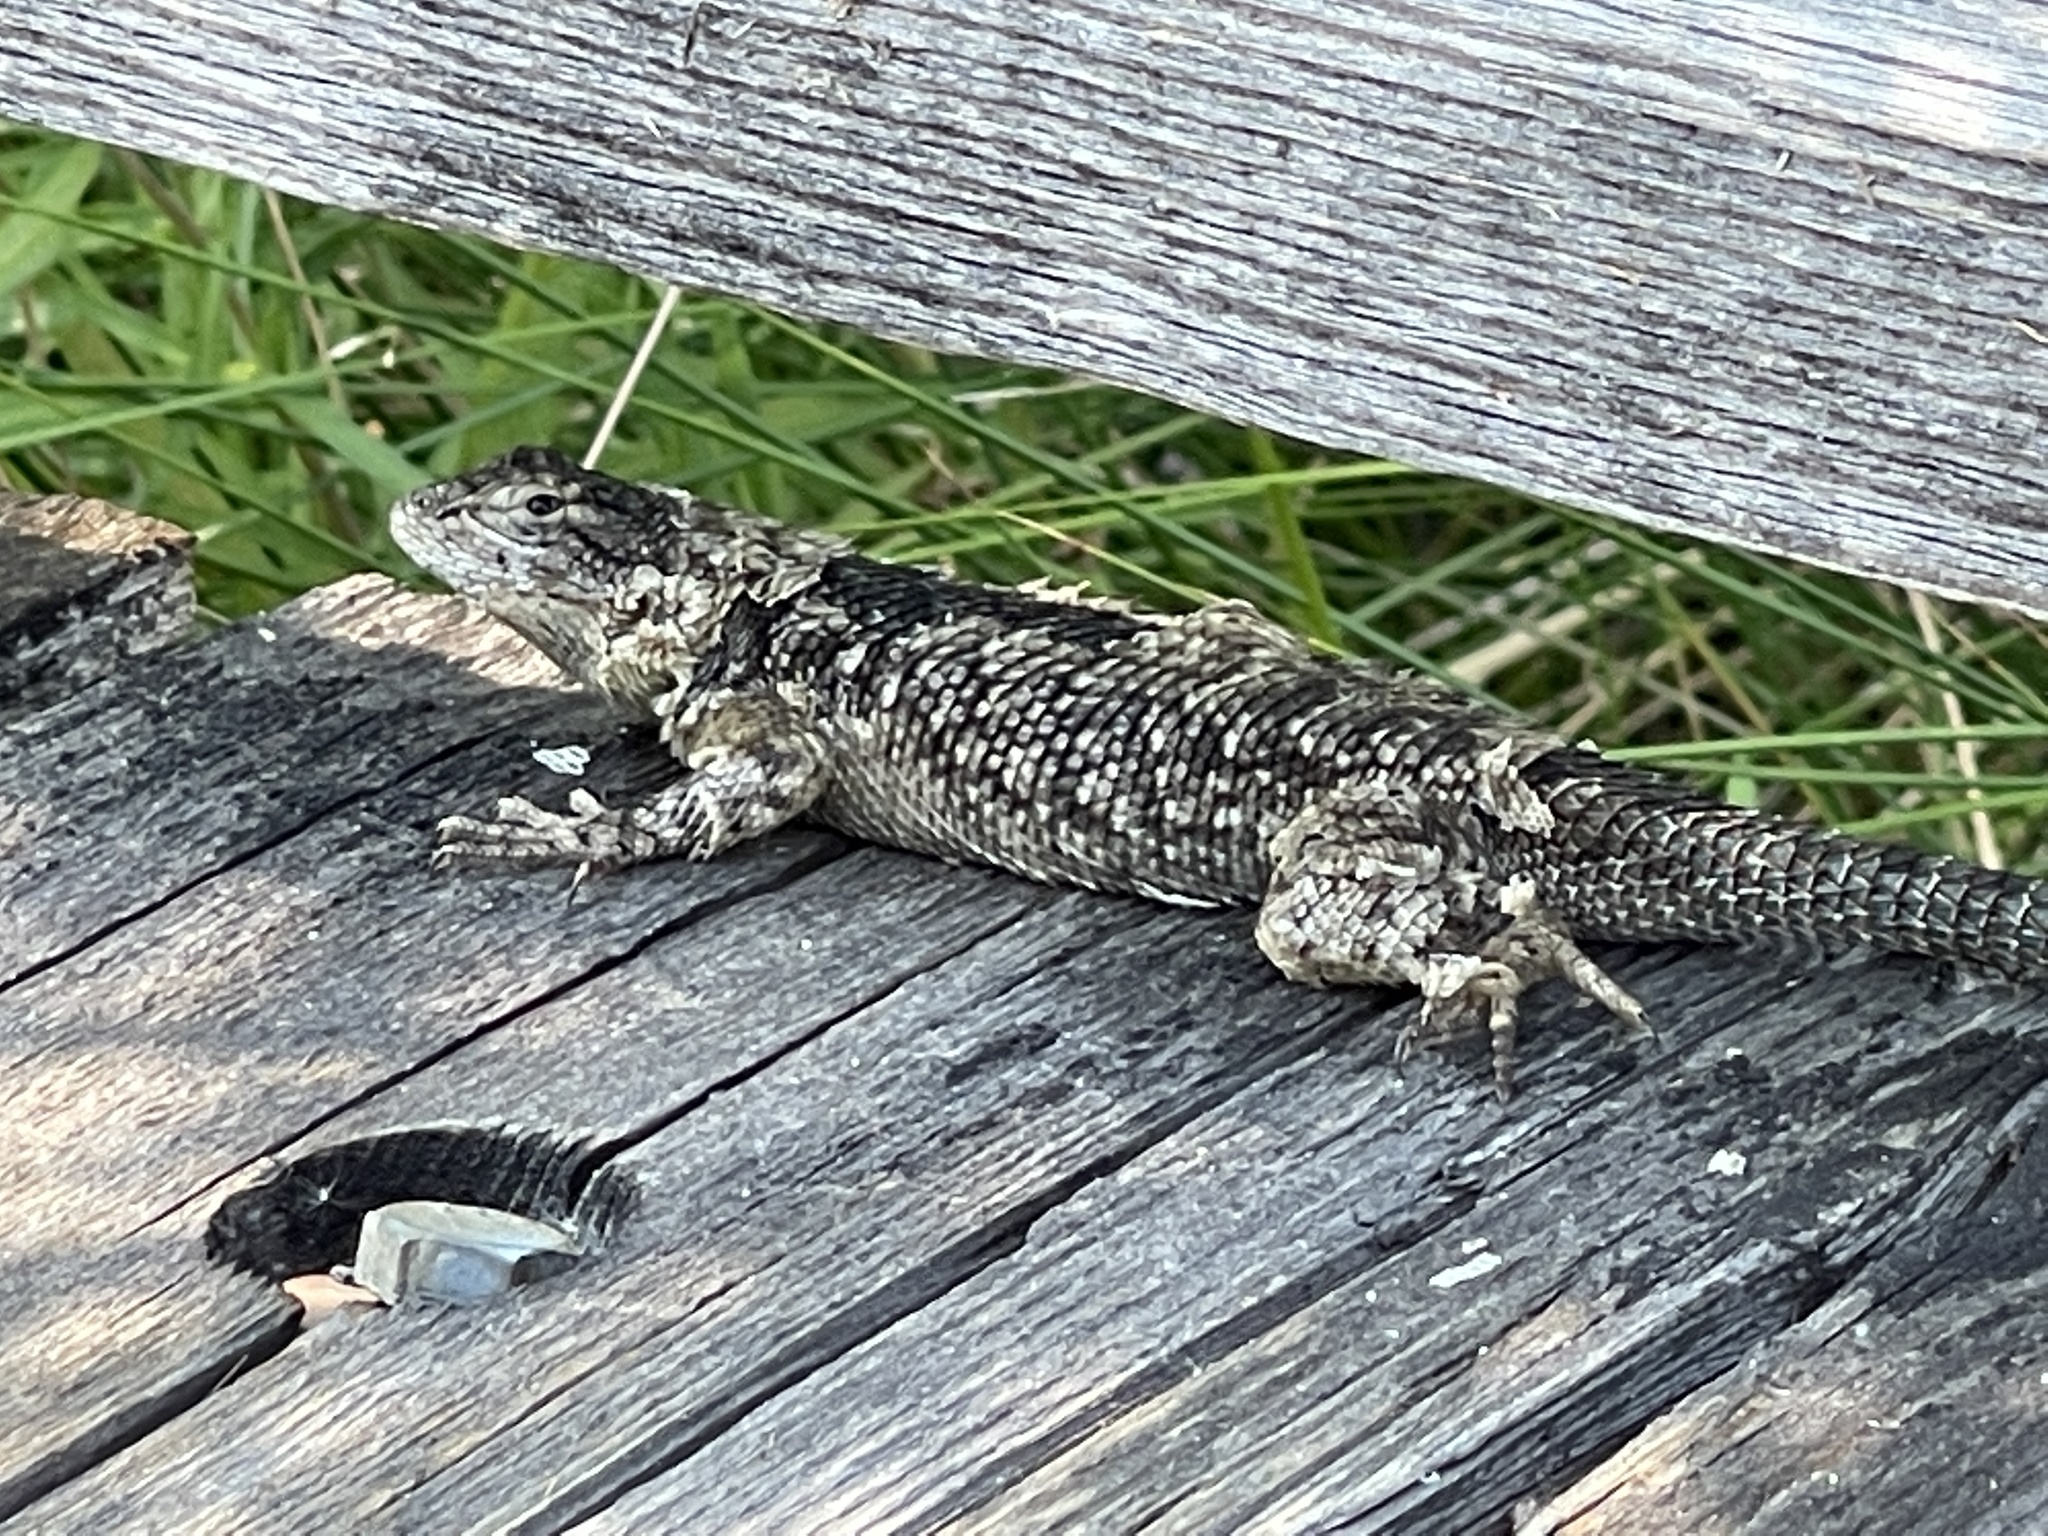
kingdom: Animalia
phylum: Chordata
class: Squamata
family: Phrynosomatidae
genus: Sceloporus
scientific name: Sceloporus occidentalis
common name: Western fence lizard
